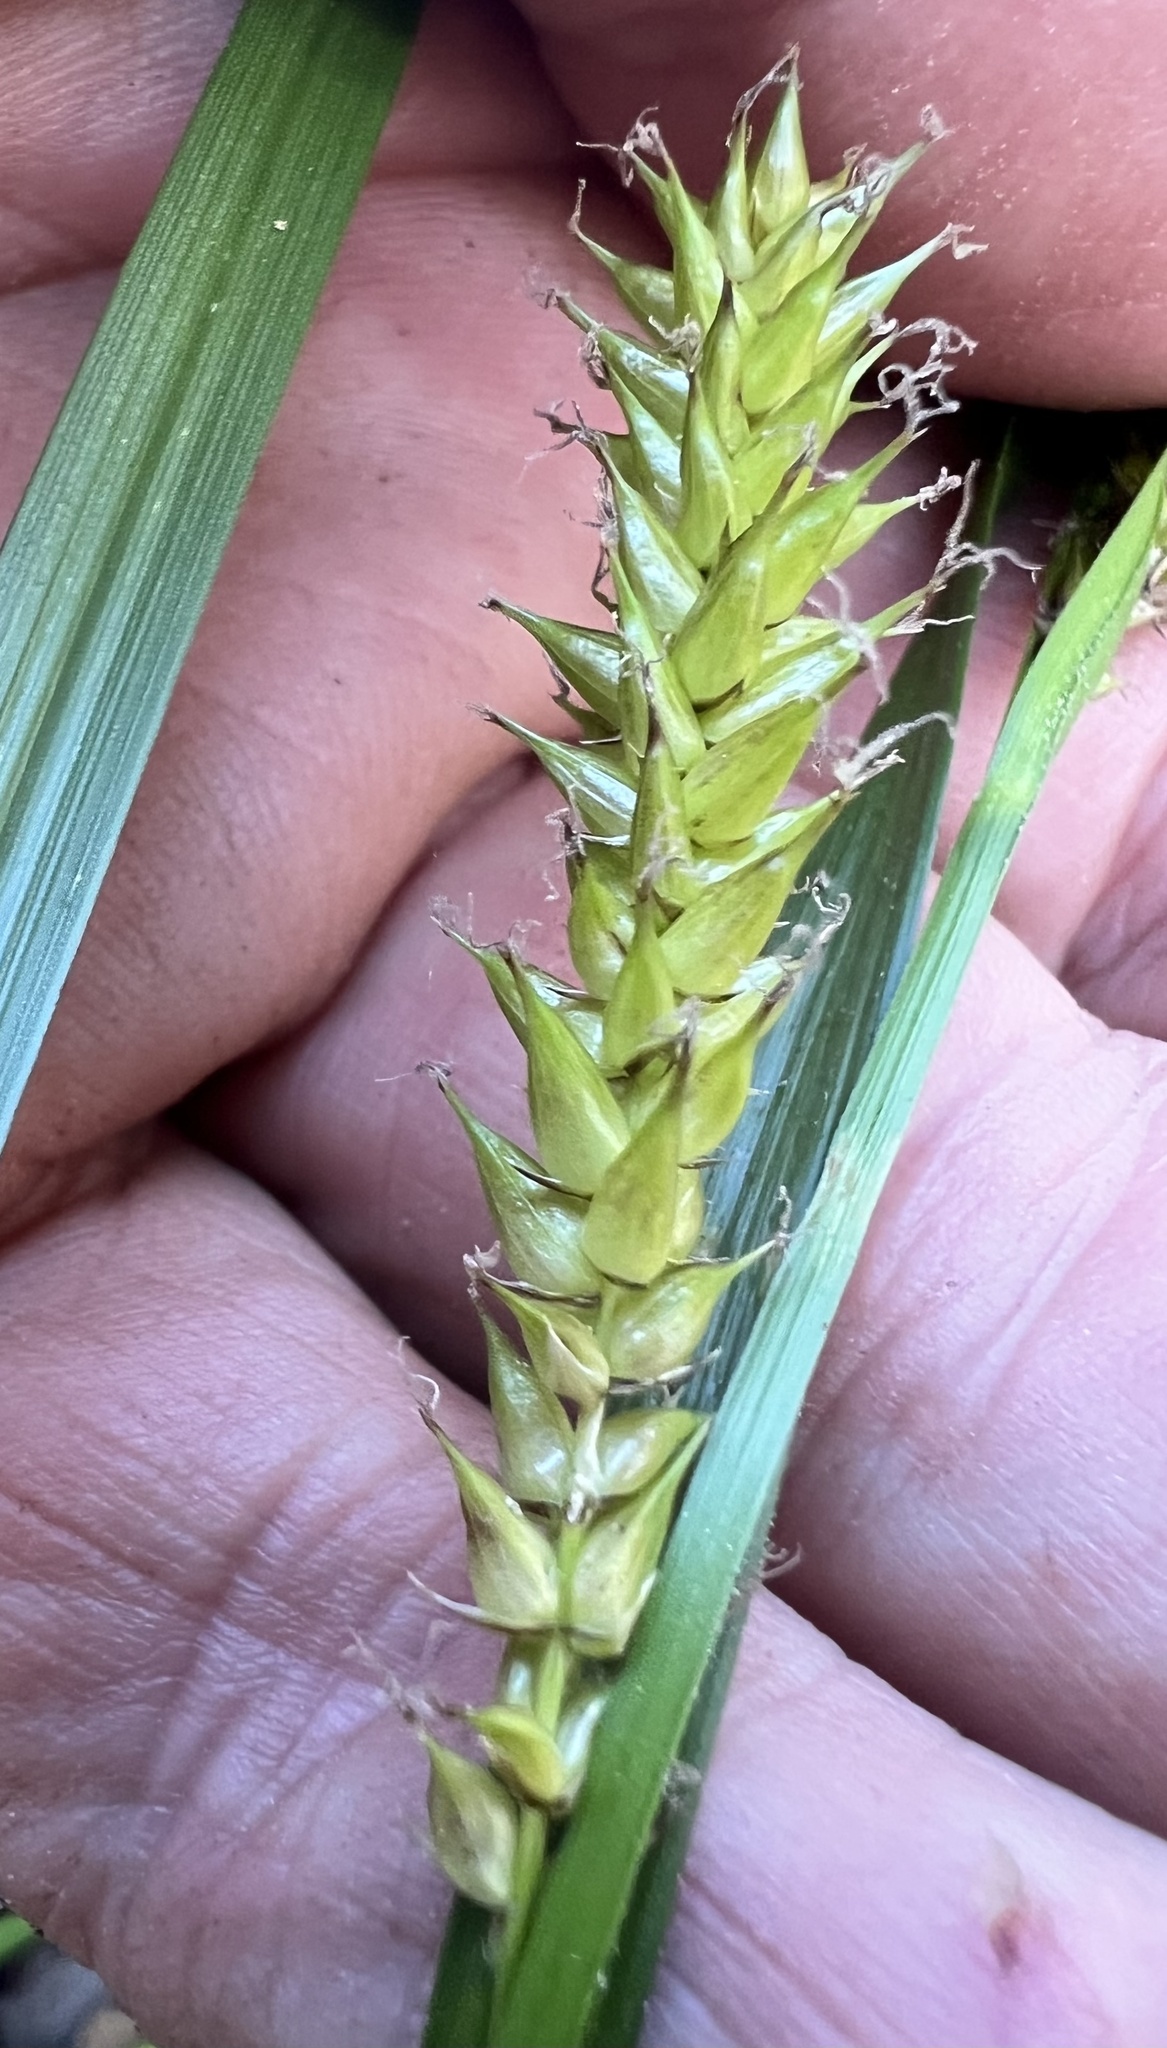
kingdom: Plantae
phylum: Tracheophyta
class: Liliopsida
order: Poales
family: Cyperaceae
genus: Carex
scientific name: Carex vesicaria
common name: Bladder-sedge
